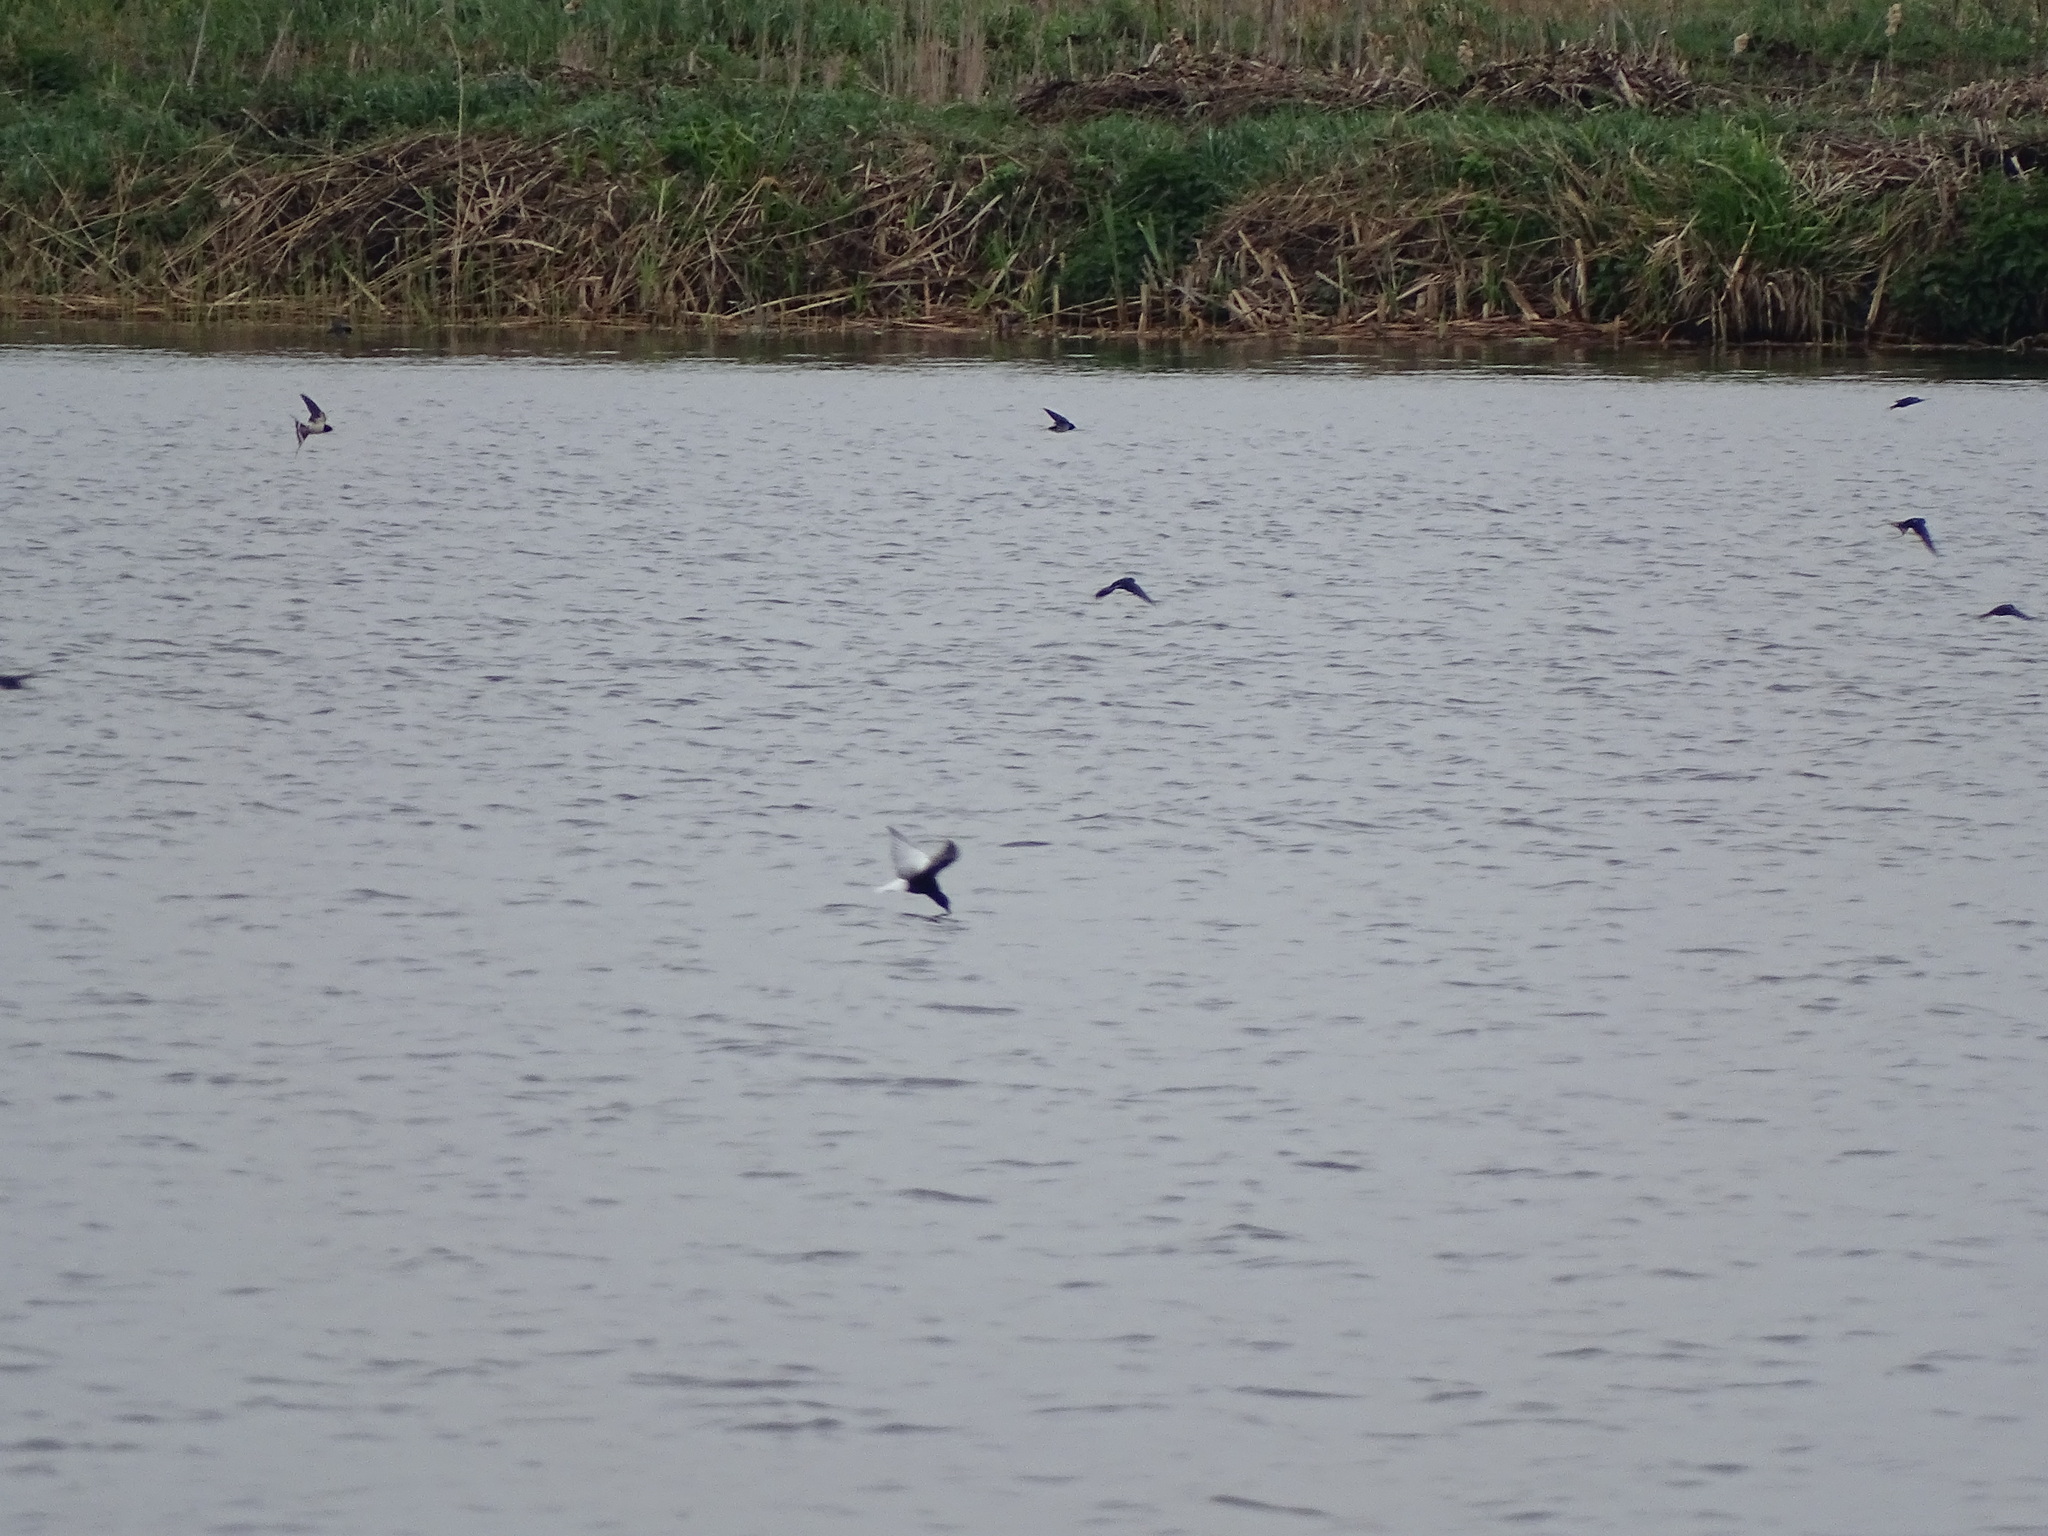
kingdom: Animalia
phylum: Chordata
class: Aves
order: Charadriiformes
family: Laridae
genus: Chlidonias
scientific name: Chlidonias leucopterus
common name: White-winged tern
